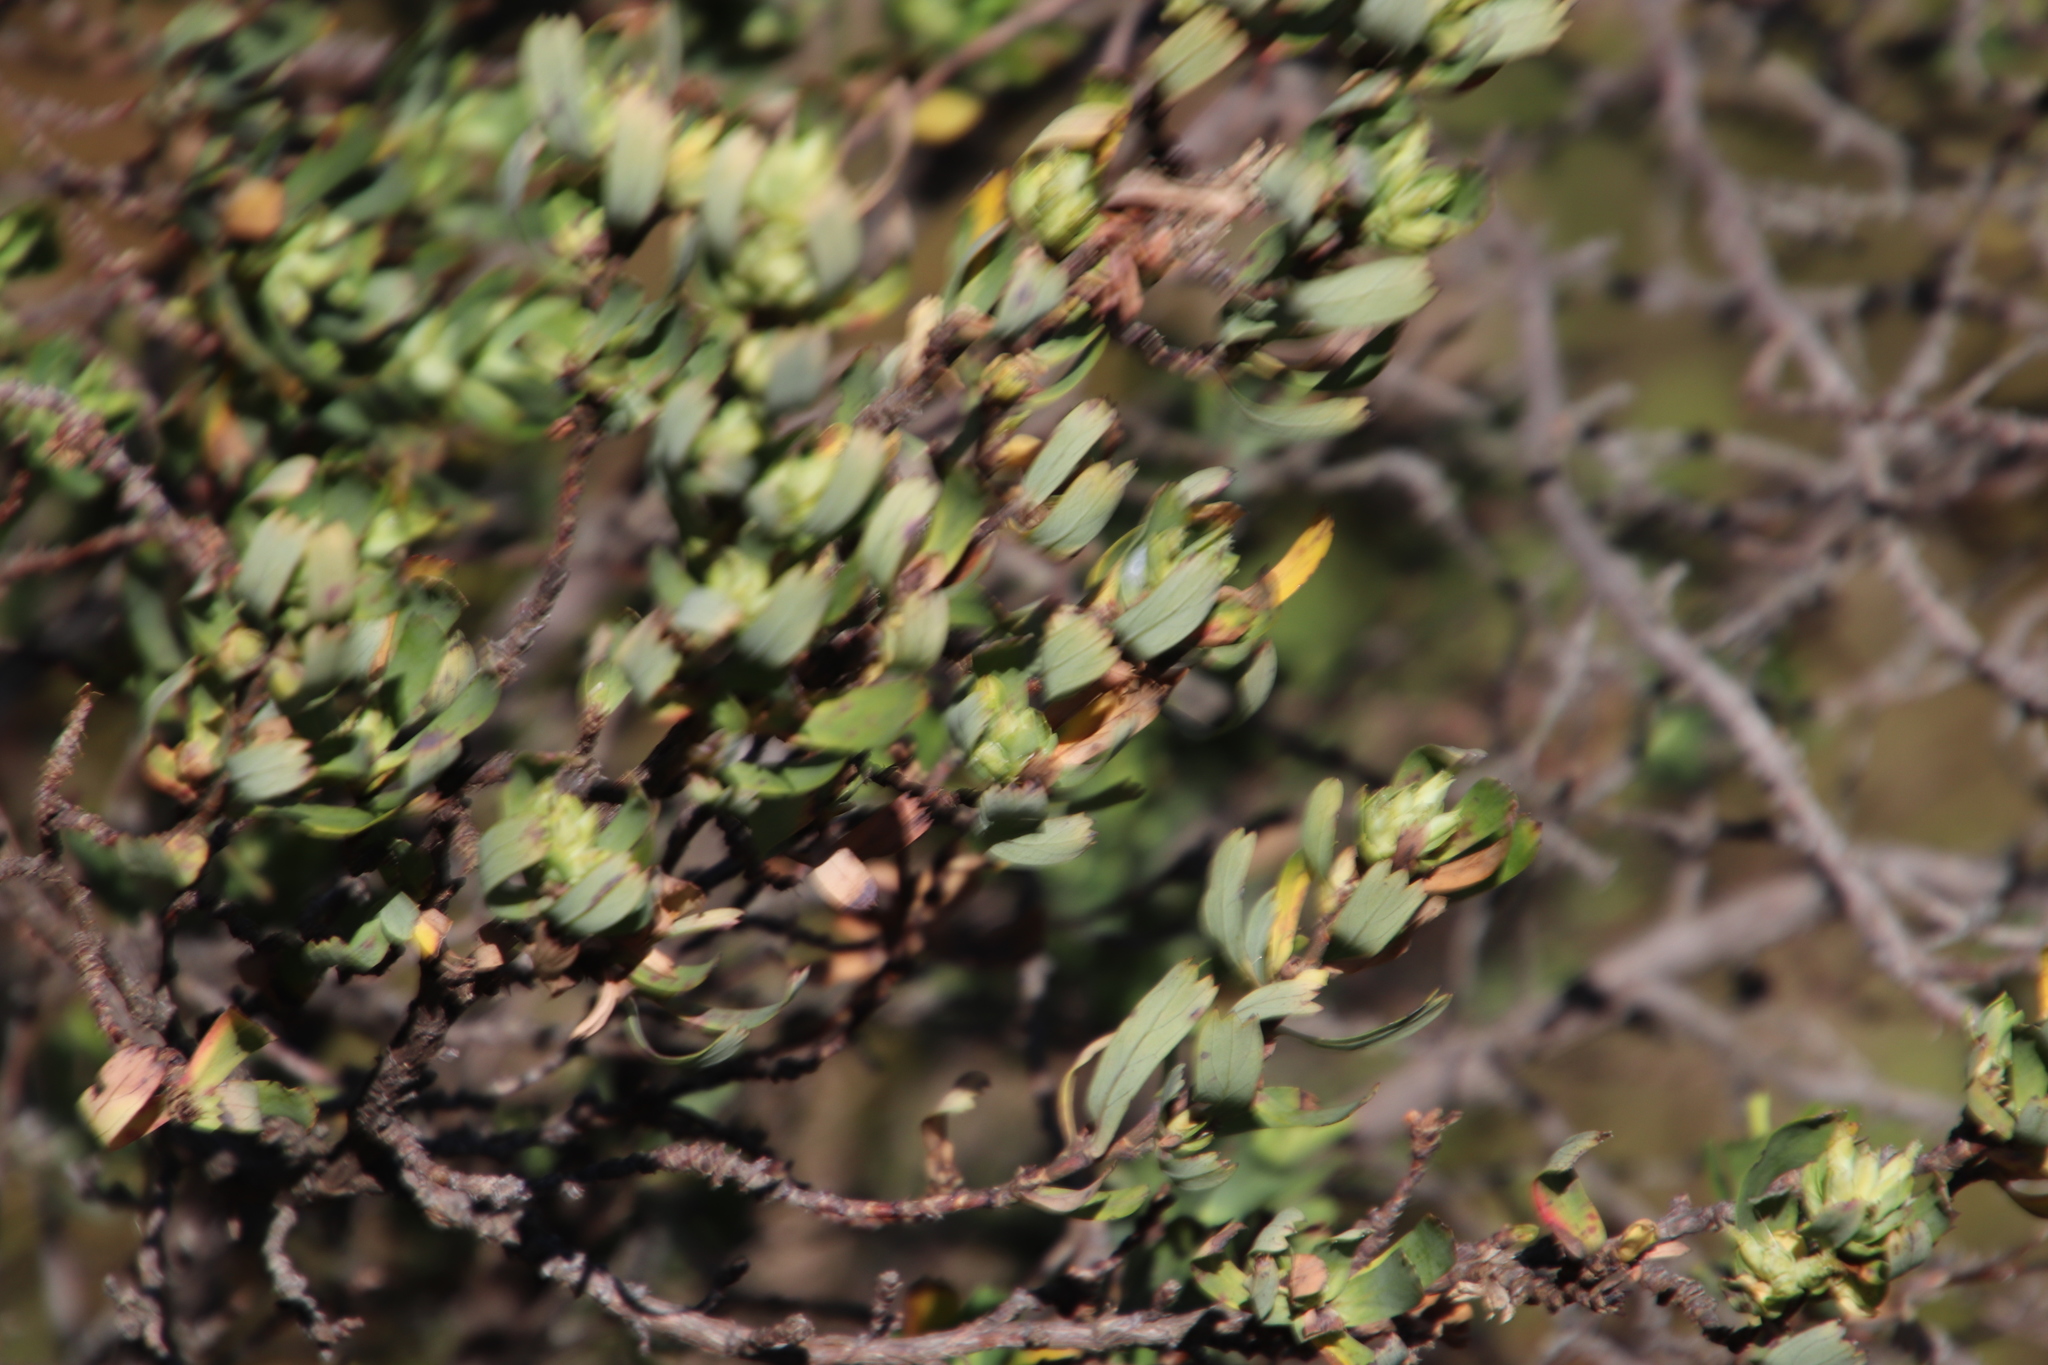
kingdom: Plantae
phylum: Tracheophyta
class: Magnoliopsida
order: Rosales
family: Rosaceae
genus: Cliffortia
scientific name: Cliffortia cuneata
